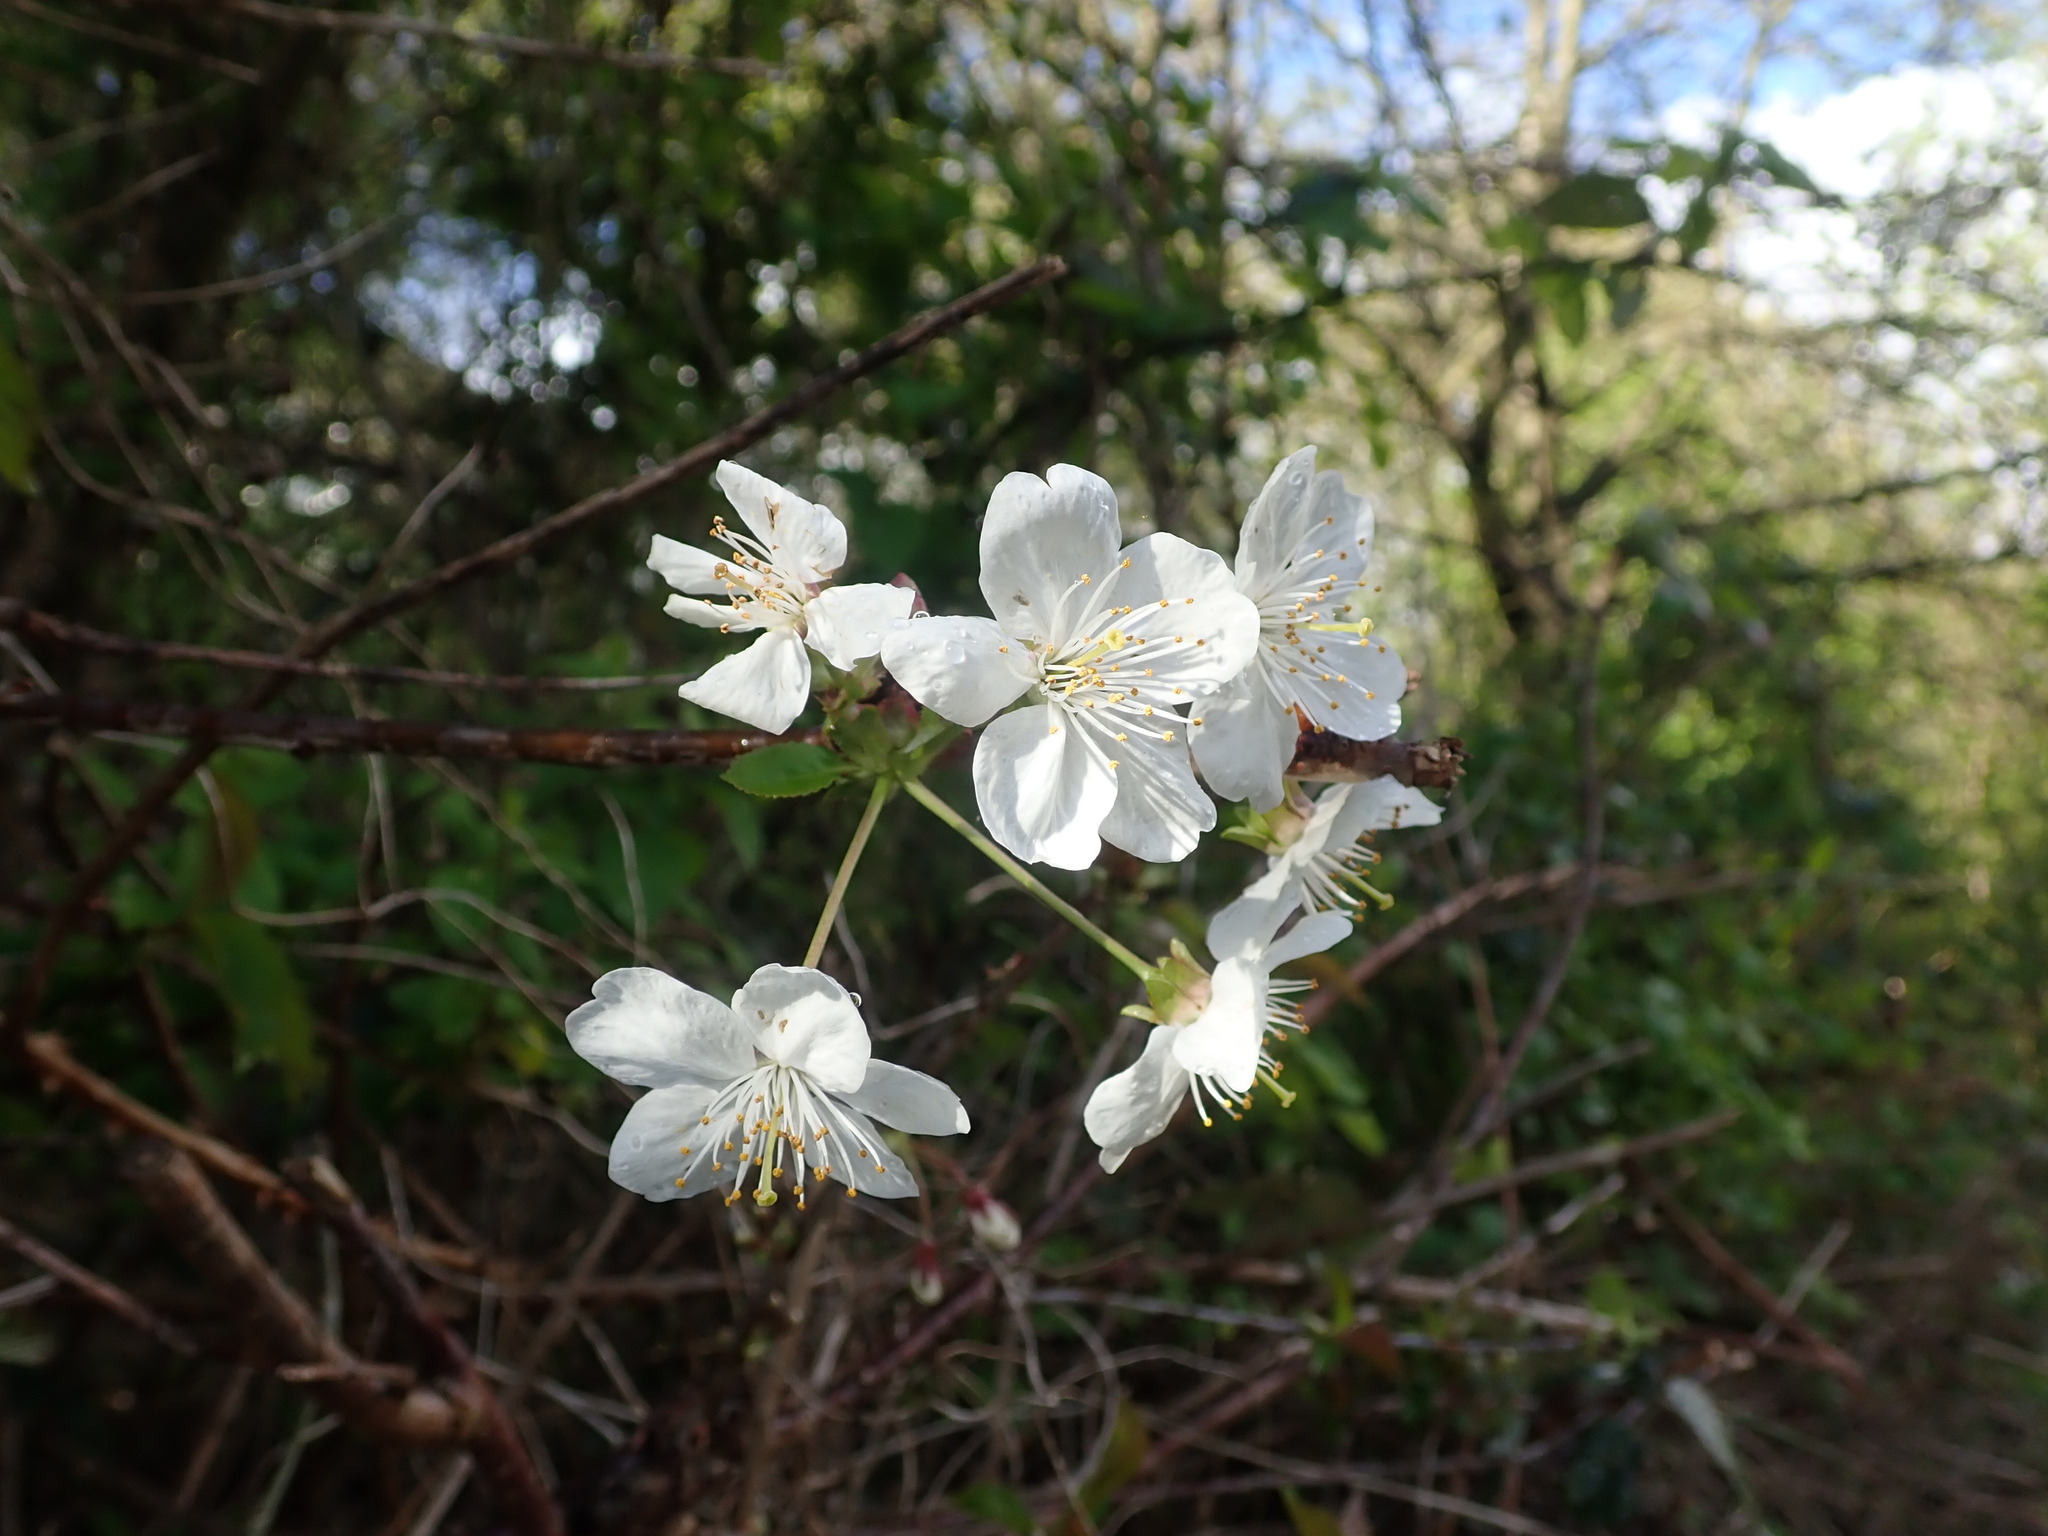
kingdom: Plantae
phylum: Tracheophyta
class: Magnoliopsida
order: Rosales
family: Rosaceae
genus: Prunus
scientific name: Prunus avium
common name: Sweet cherry
